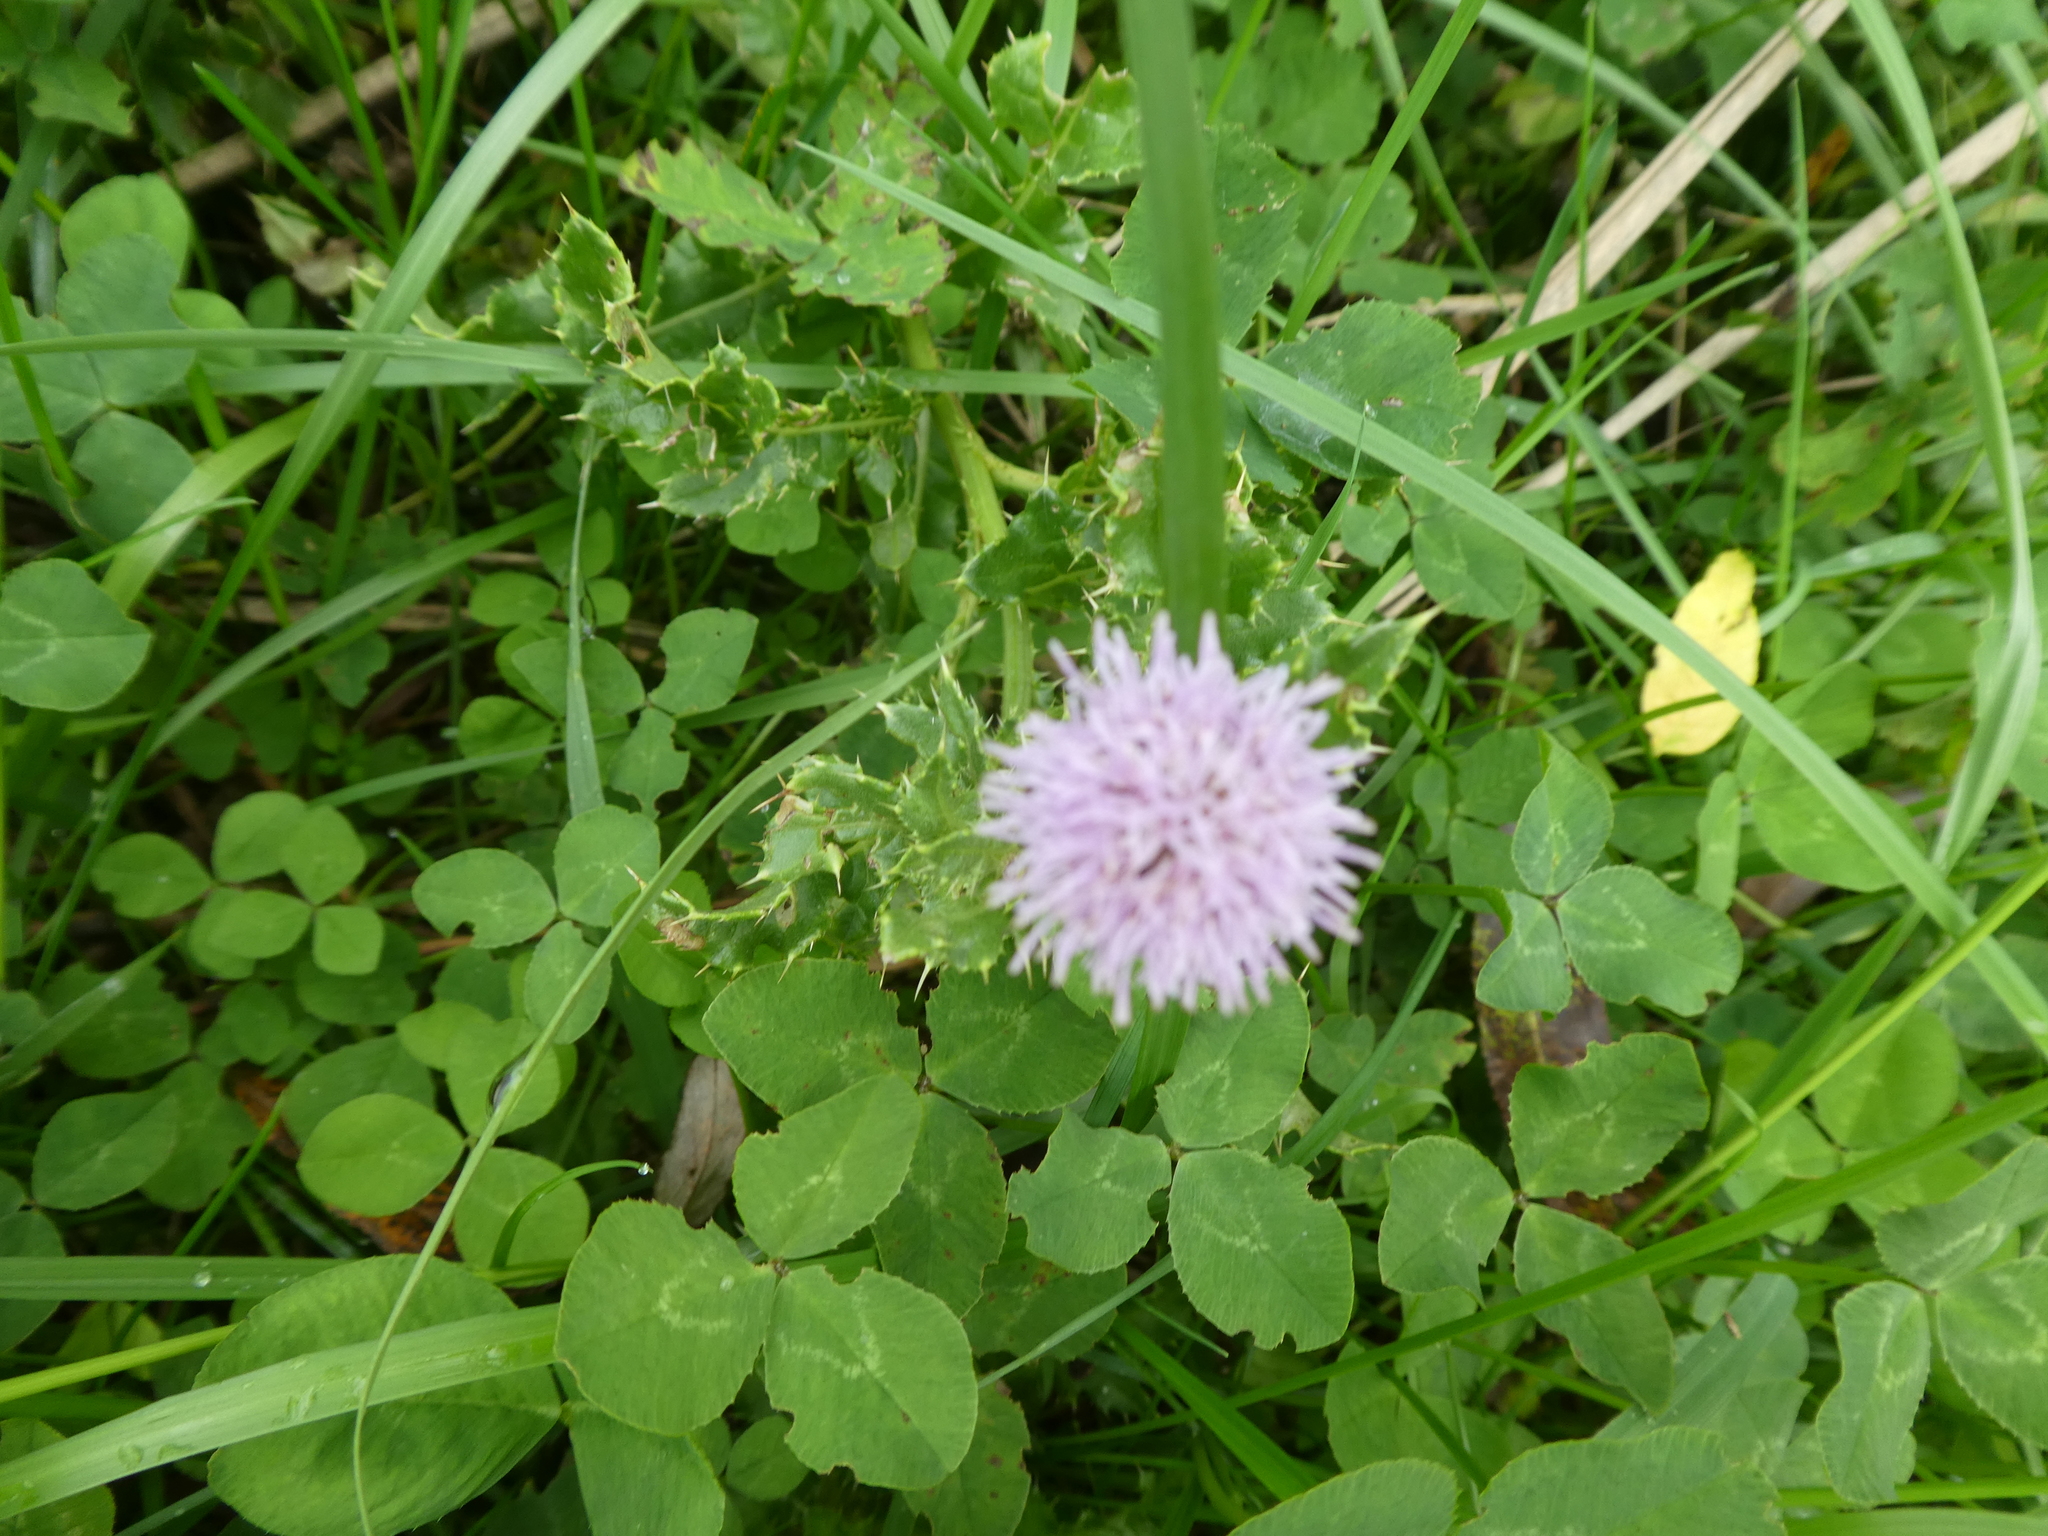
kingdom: Plantae
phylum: Tracheophyta
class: Magnoliopsida
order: Asterales
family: Asteraceae
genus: Cirsium
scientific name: Cirsium arvense
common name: Creeping thistle
